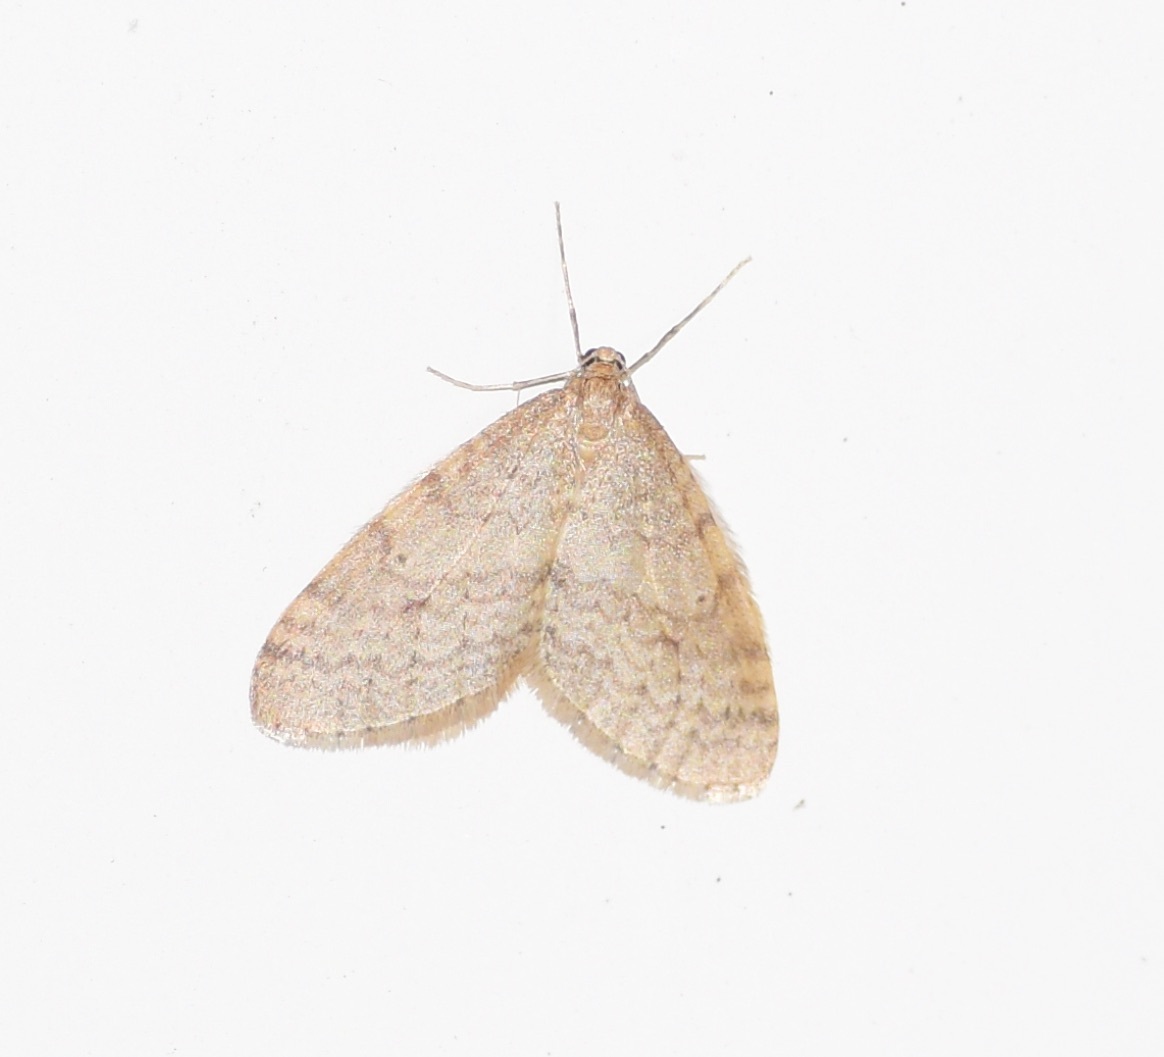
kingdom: Animalia
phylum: Arthropoda
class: Insecta
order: Lepidoptera
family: Geometridae
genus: Operophtera
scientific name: Operophtera bruceata
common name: Bruce spanworm
